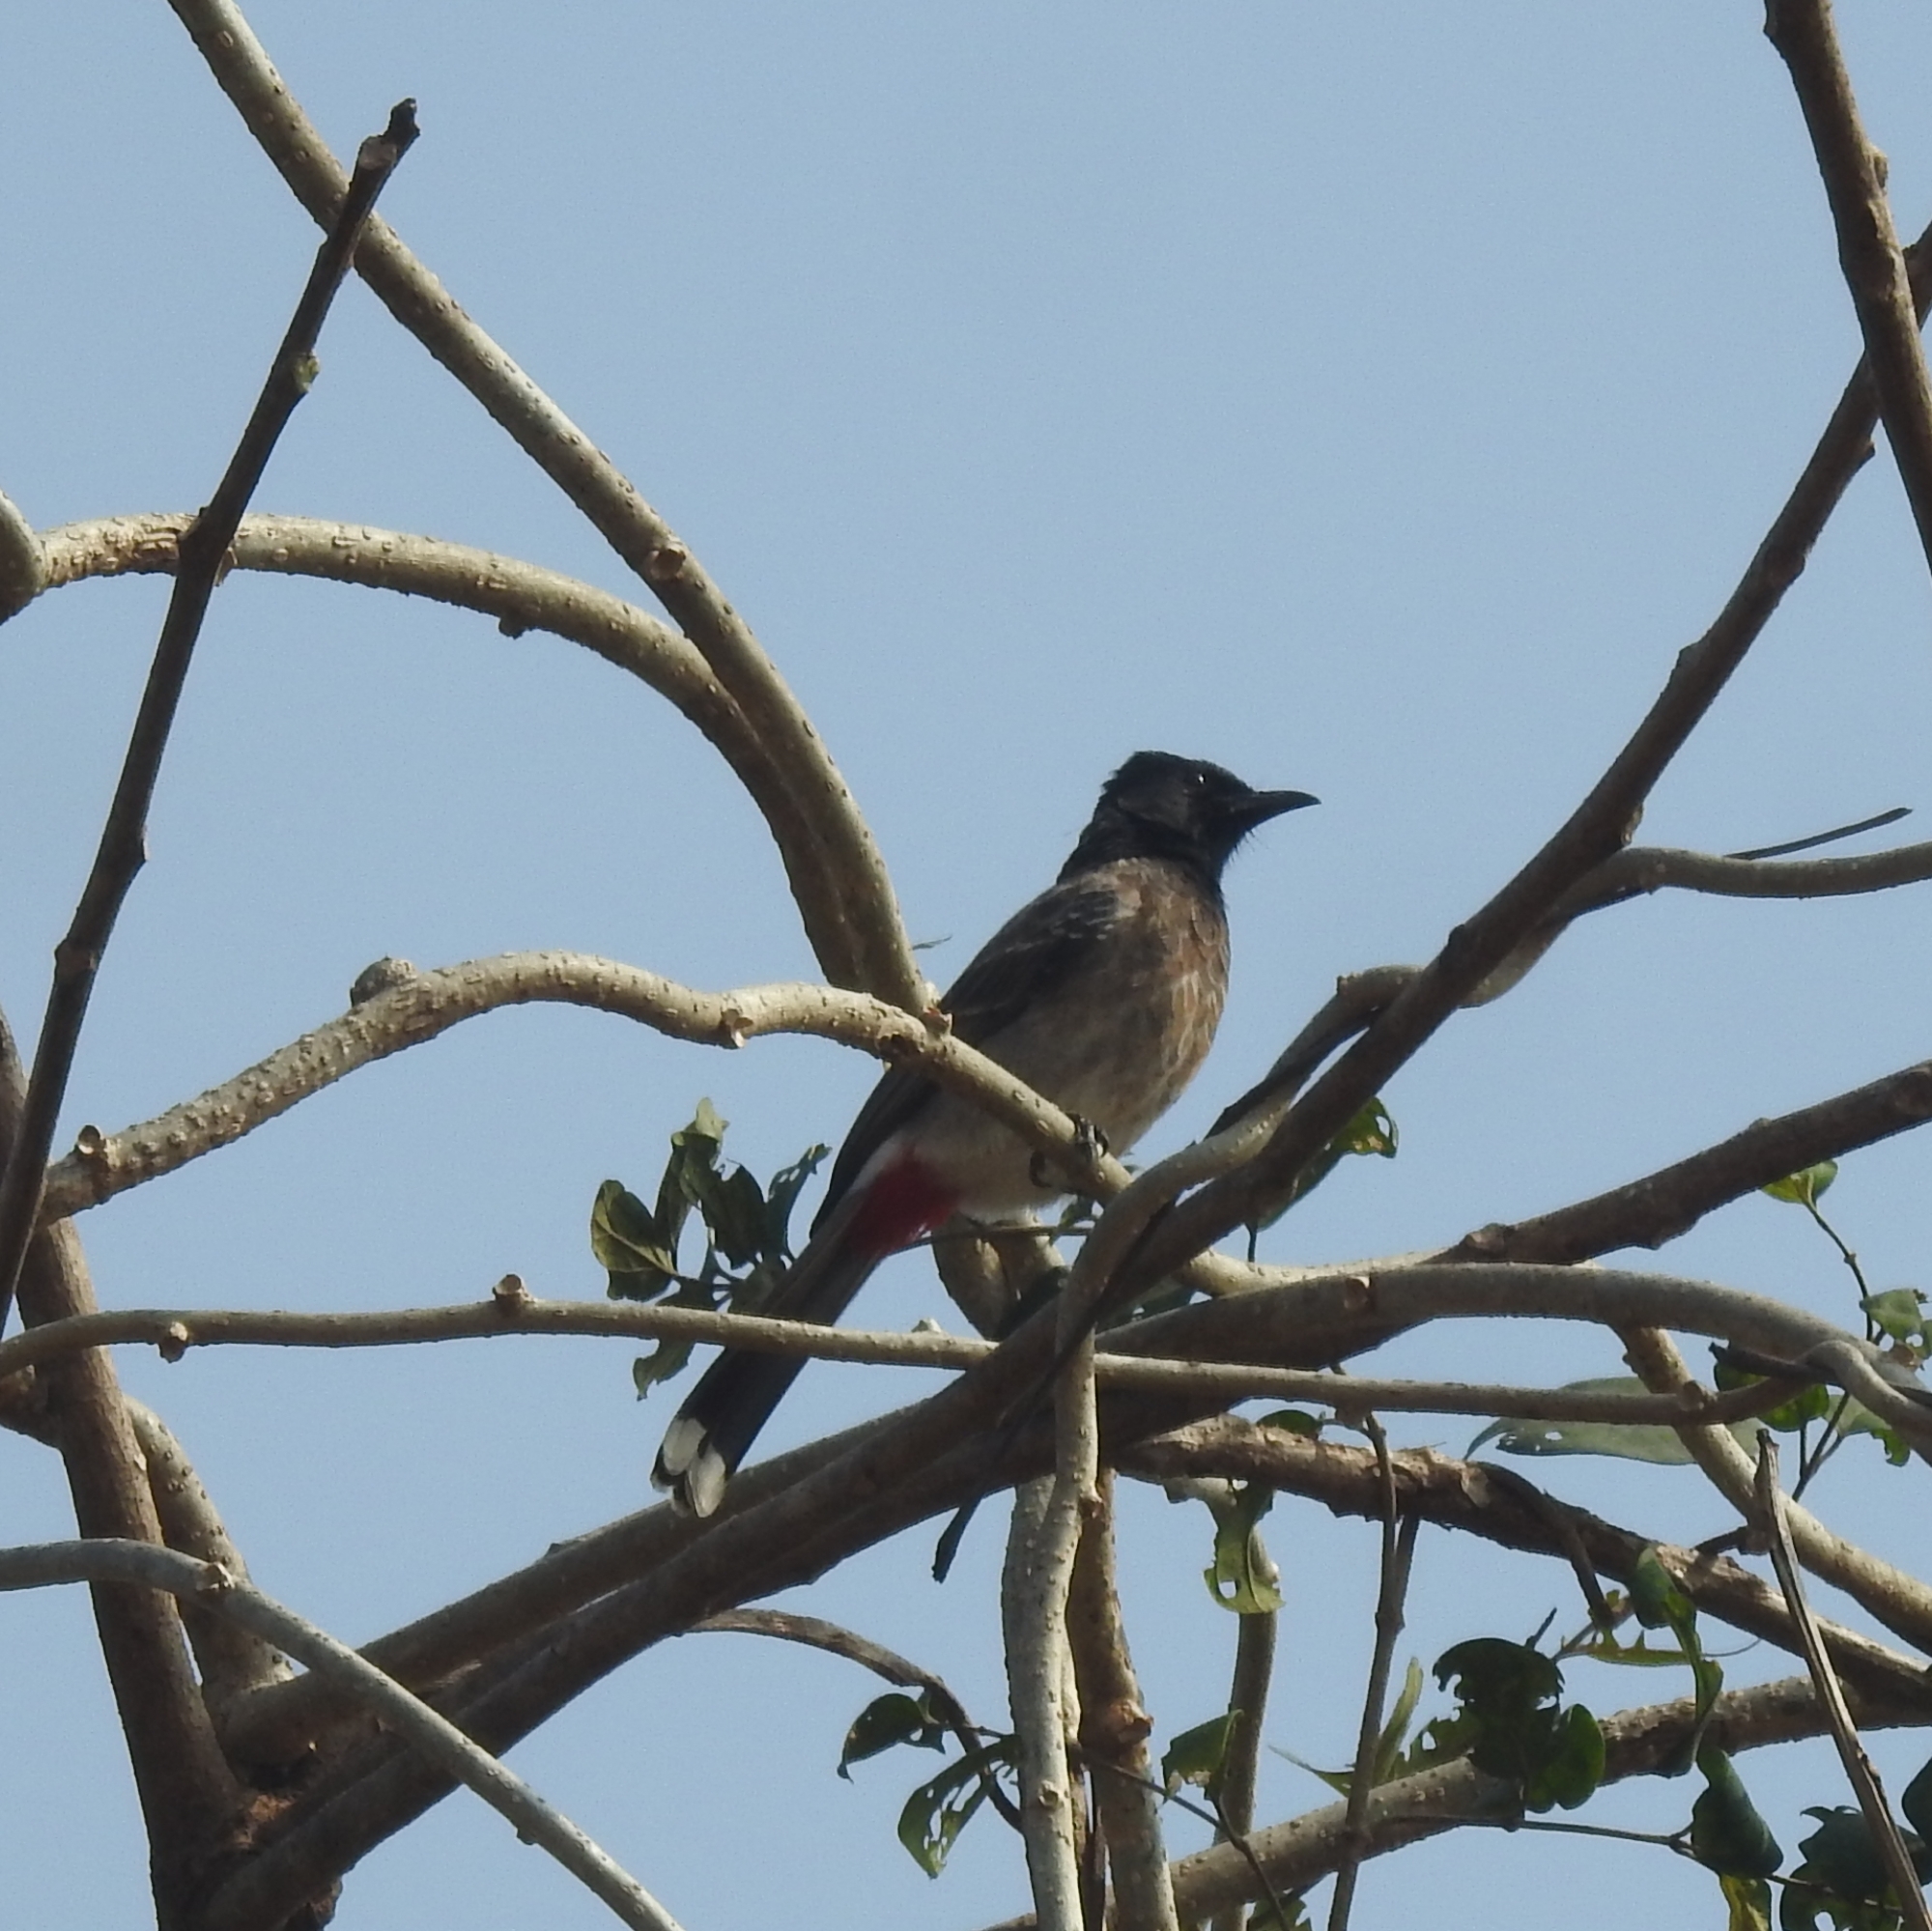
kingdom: Animalia
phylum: Chordata
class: Aves
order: Passeriformes
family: Pycnonotidae
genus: Pycnonotus
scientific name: Pycnonotus cafer
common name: Red-vented bulbul
